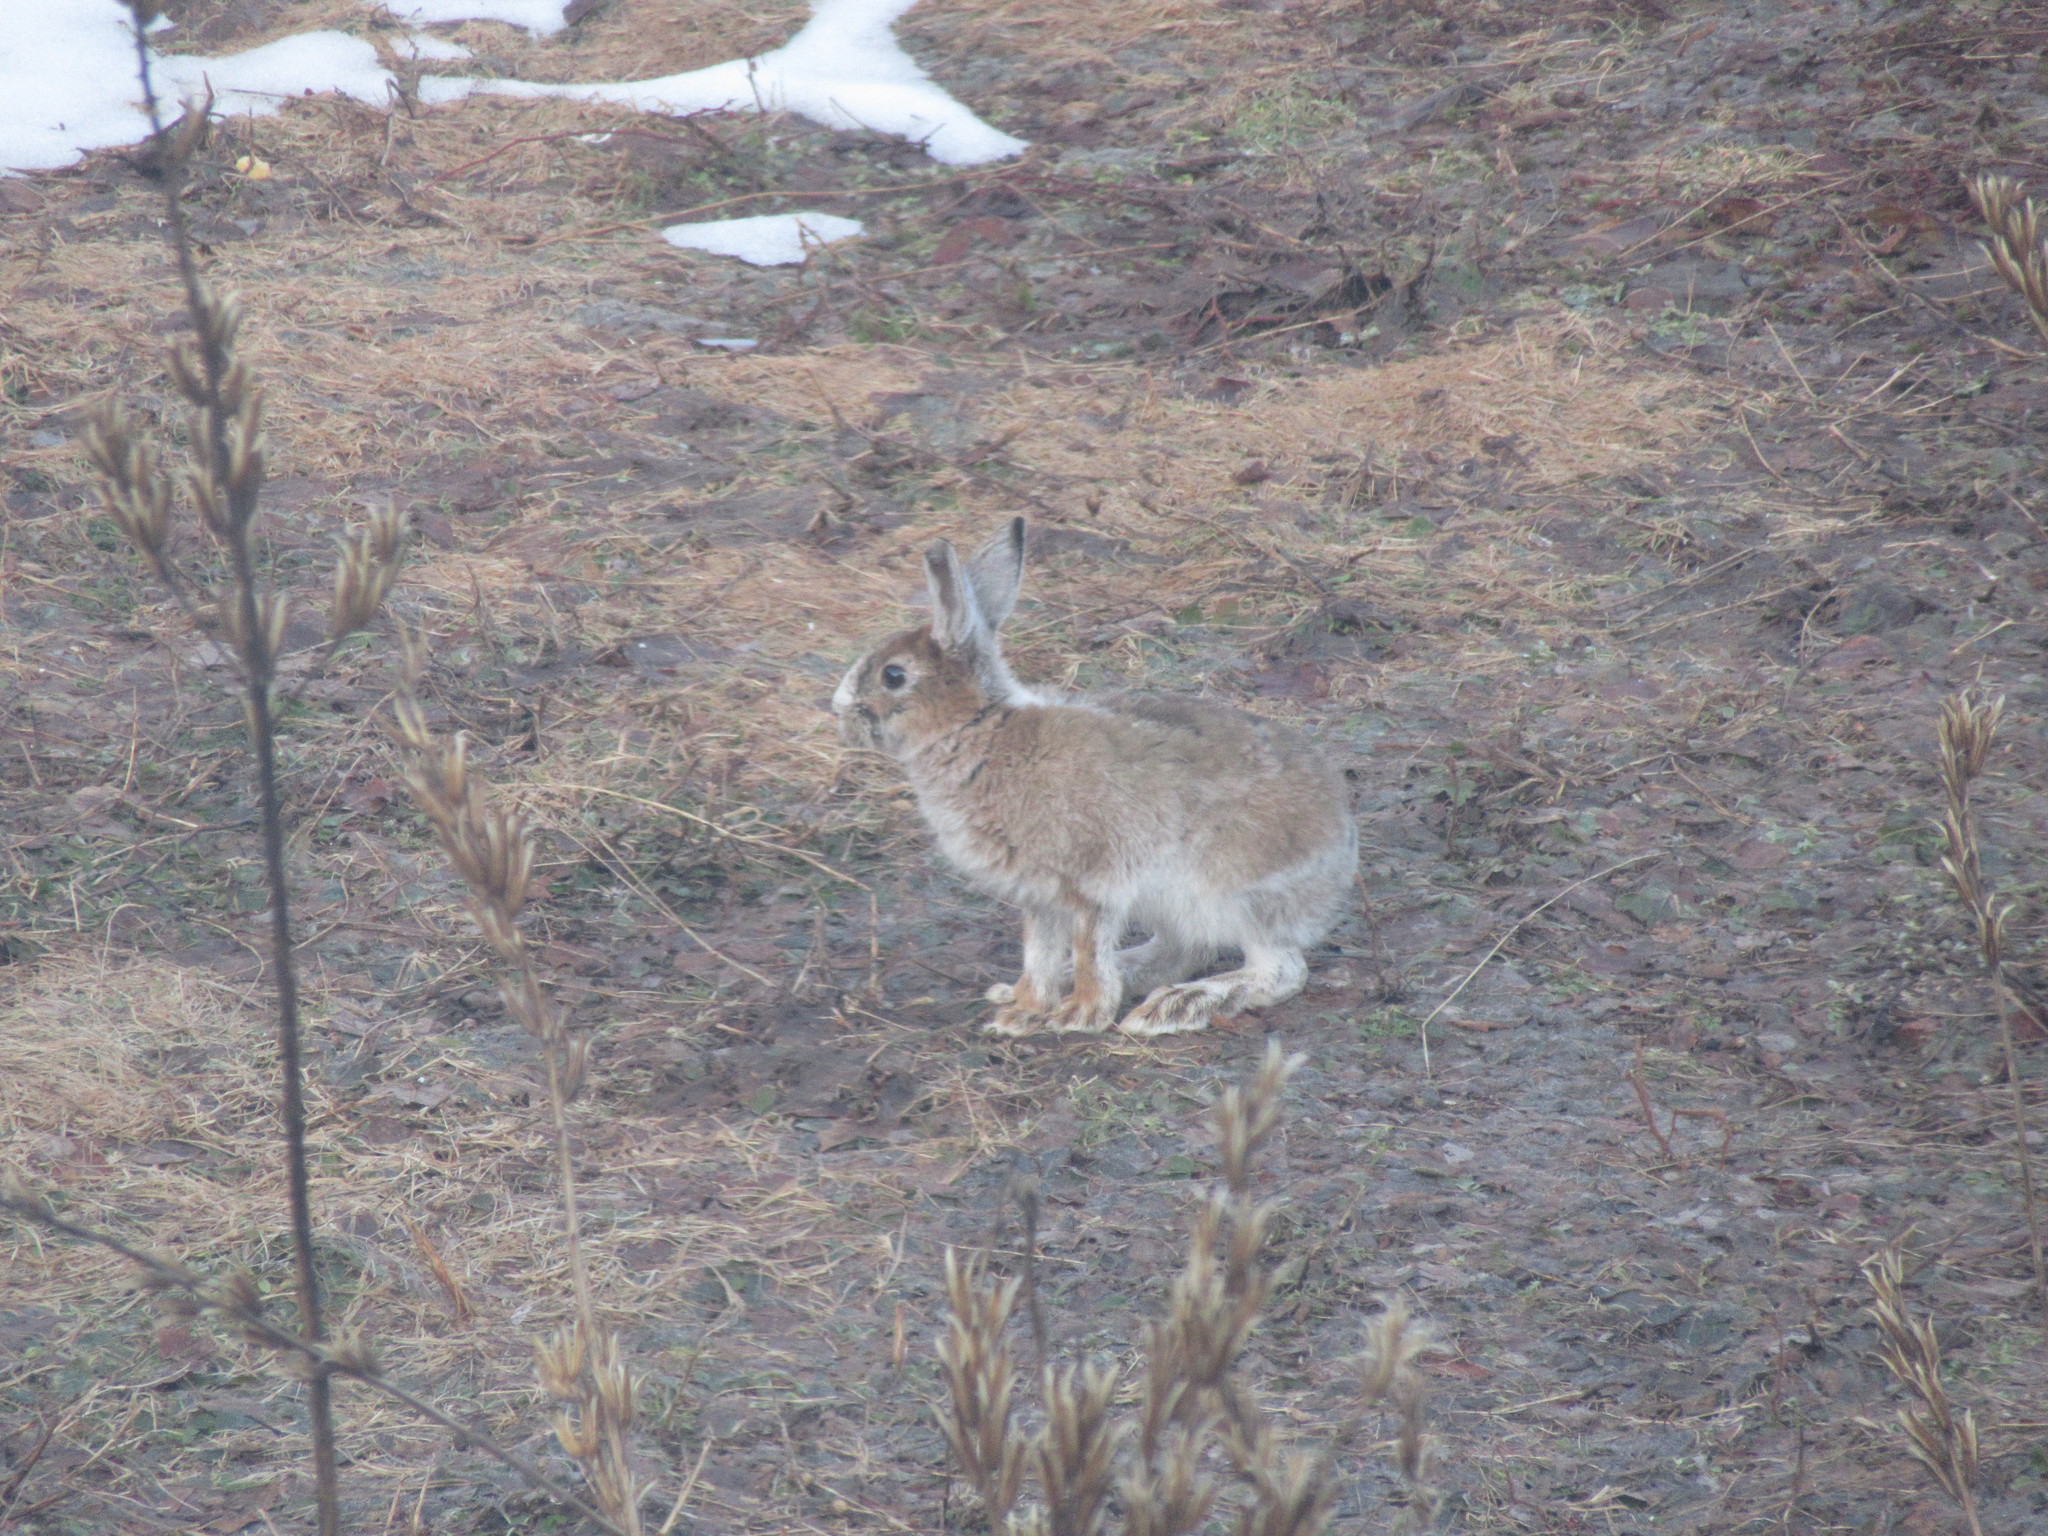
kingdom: Animalia
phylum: Chordata
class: Mammalia
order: Lagomorpha
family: Leporidae
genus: Lepus
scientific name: Lepus americanus
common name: Snowshoe hare
